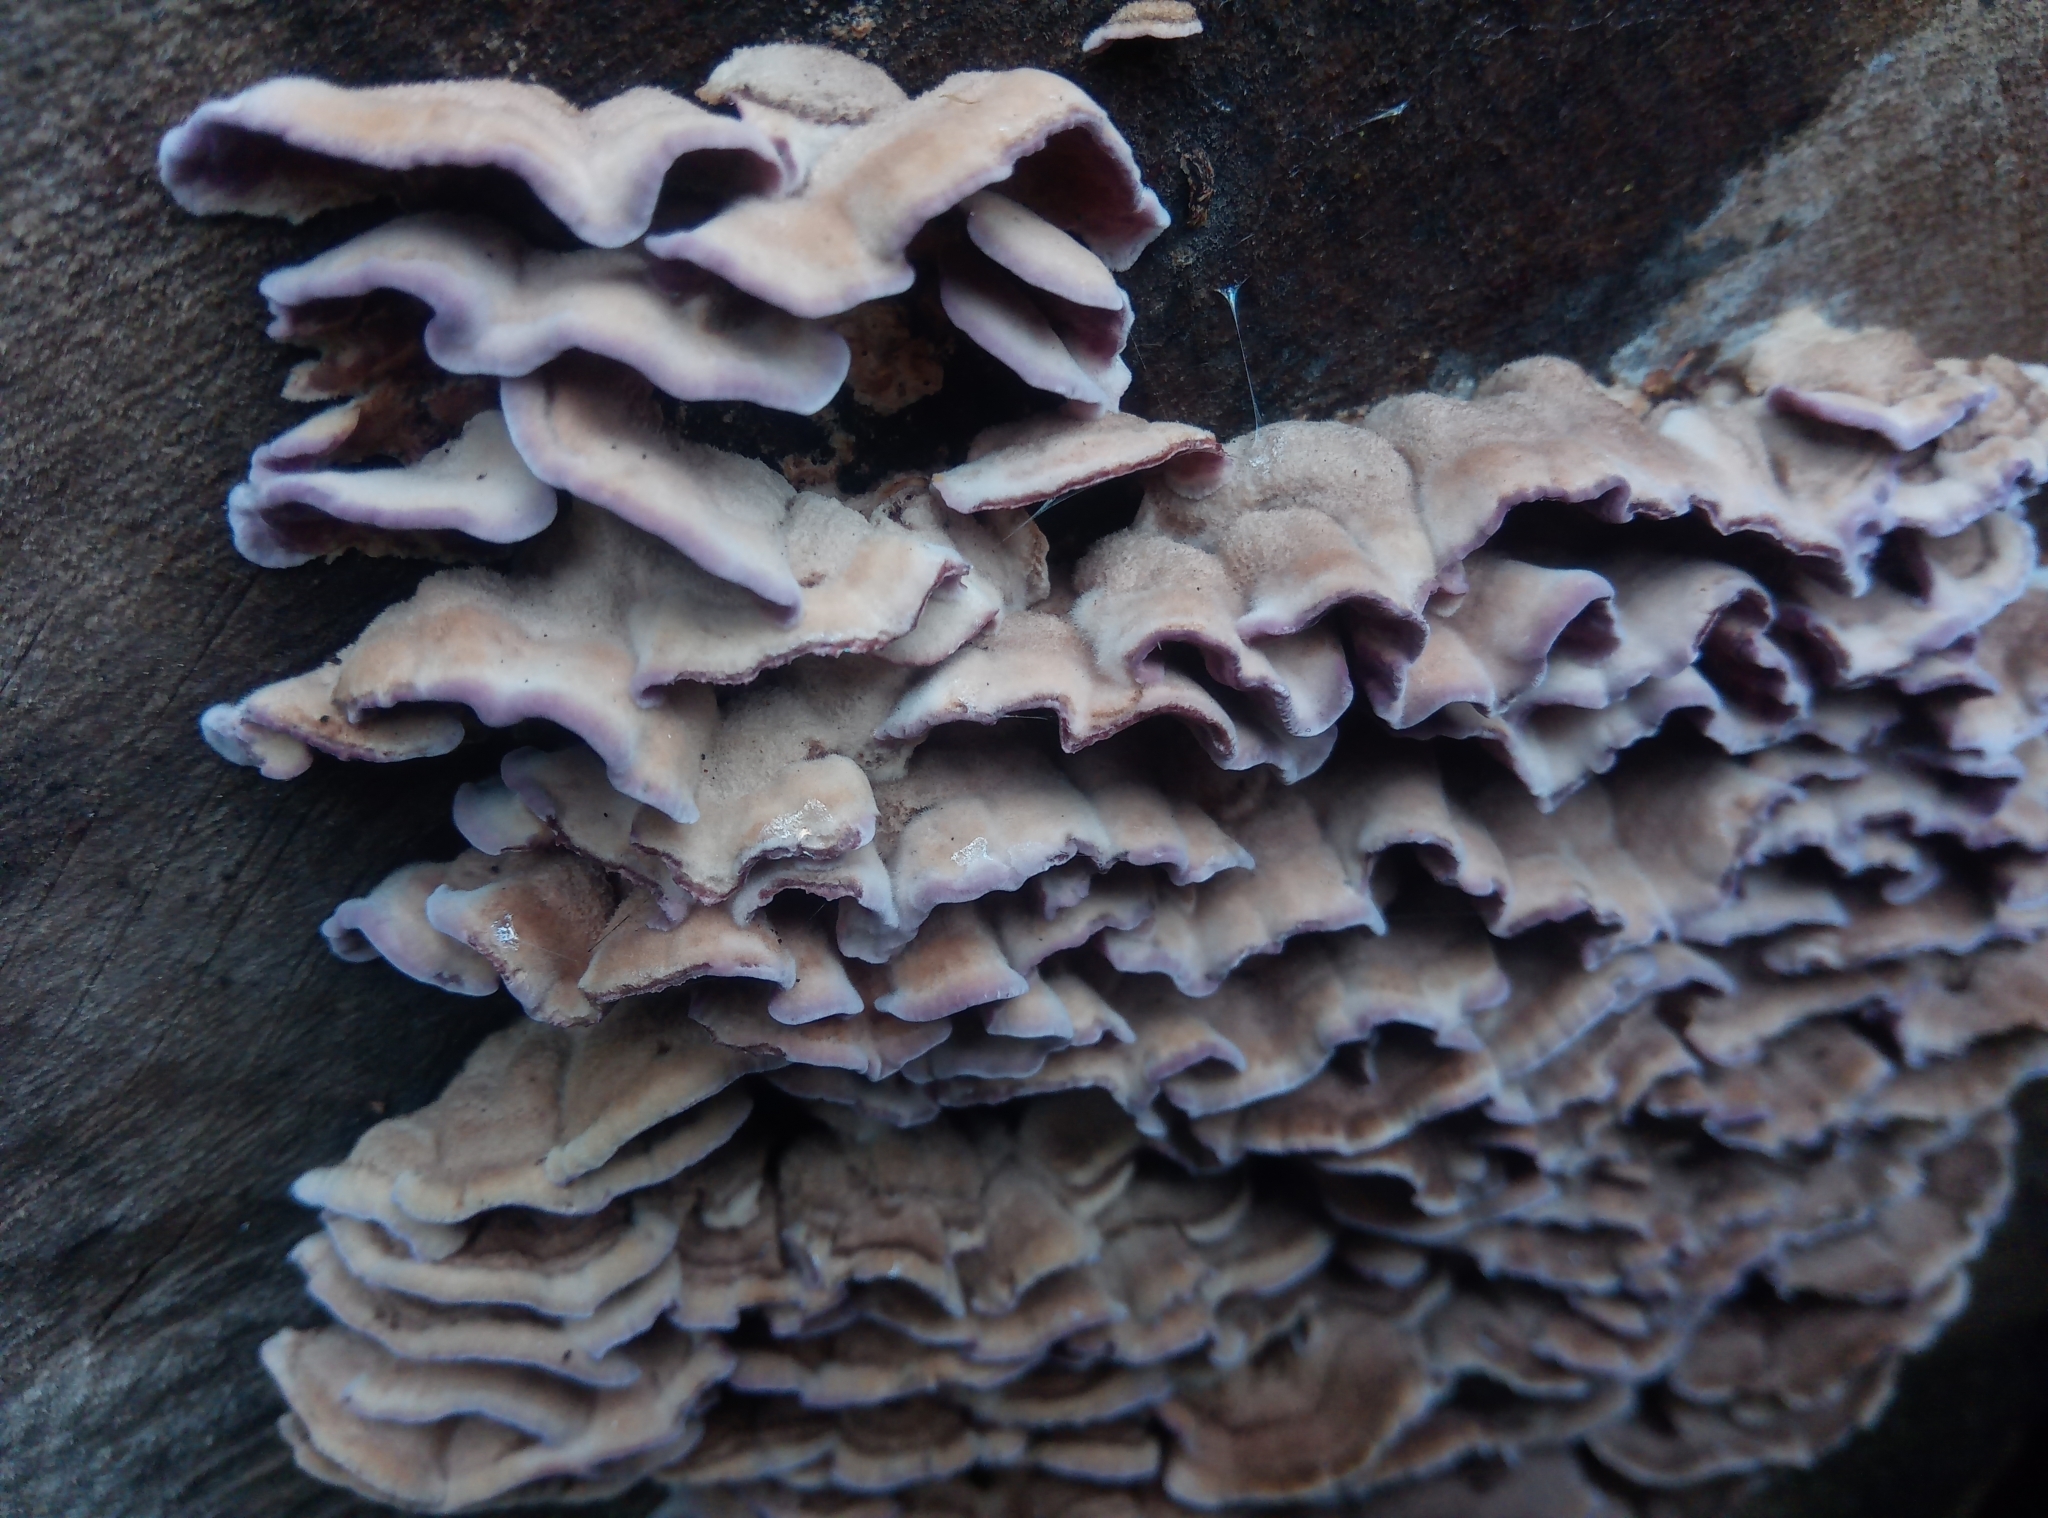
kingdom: Fungi
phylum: Basidiomycota
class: Agaricomycetes
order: Agaricales
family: Cyphellaceae
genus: Chondrostereum
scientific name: Chondrostereum purpureum
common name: Silver leaf disease
